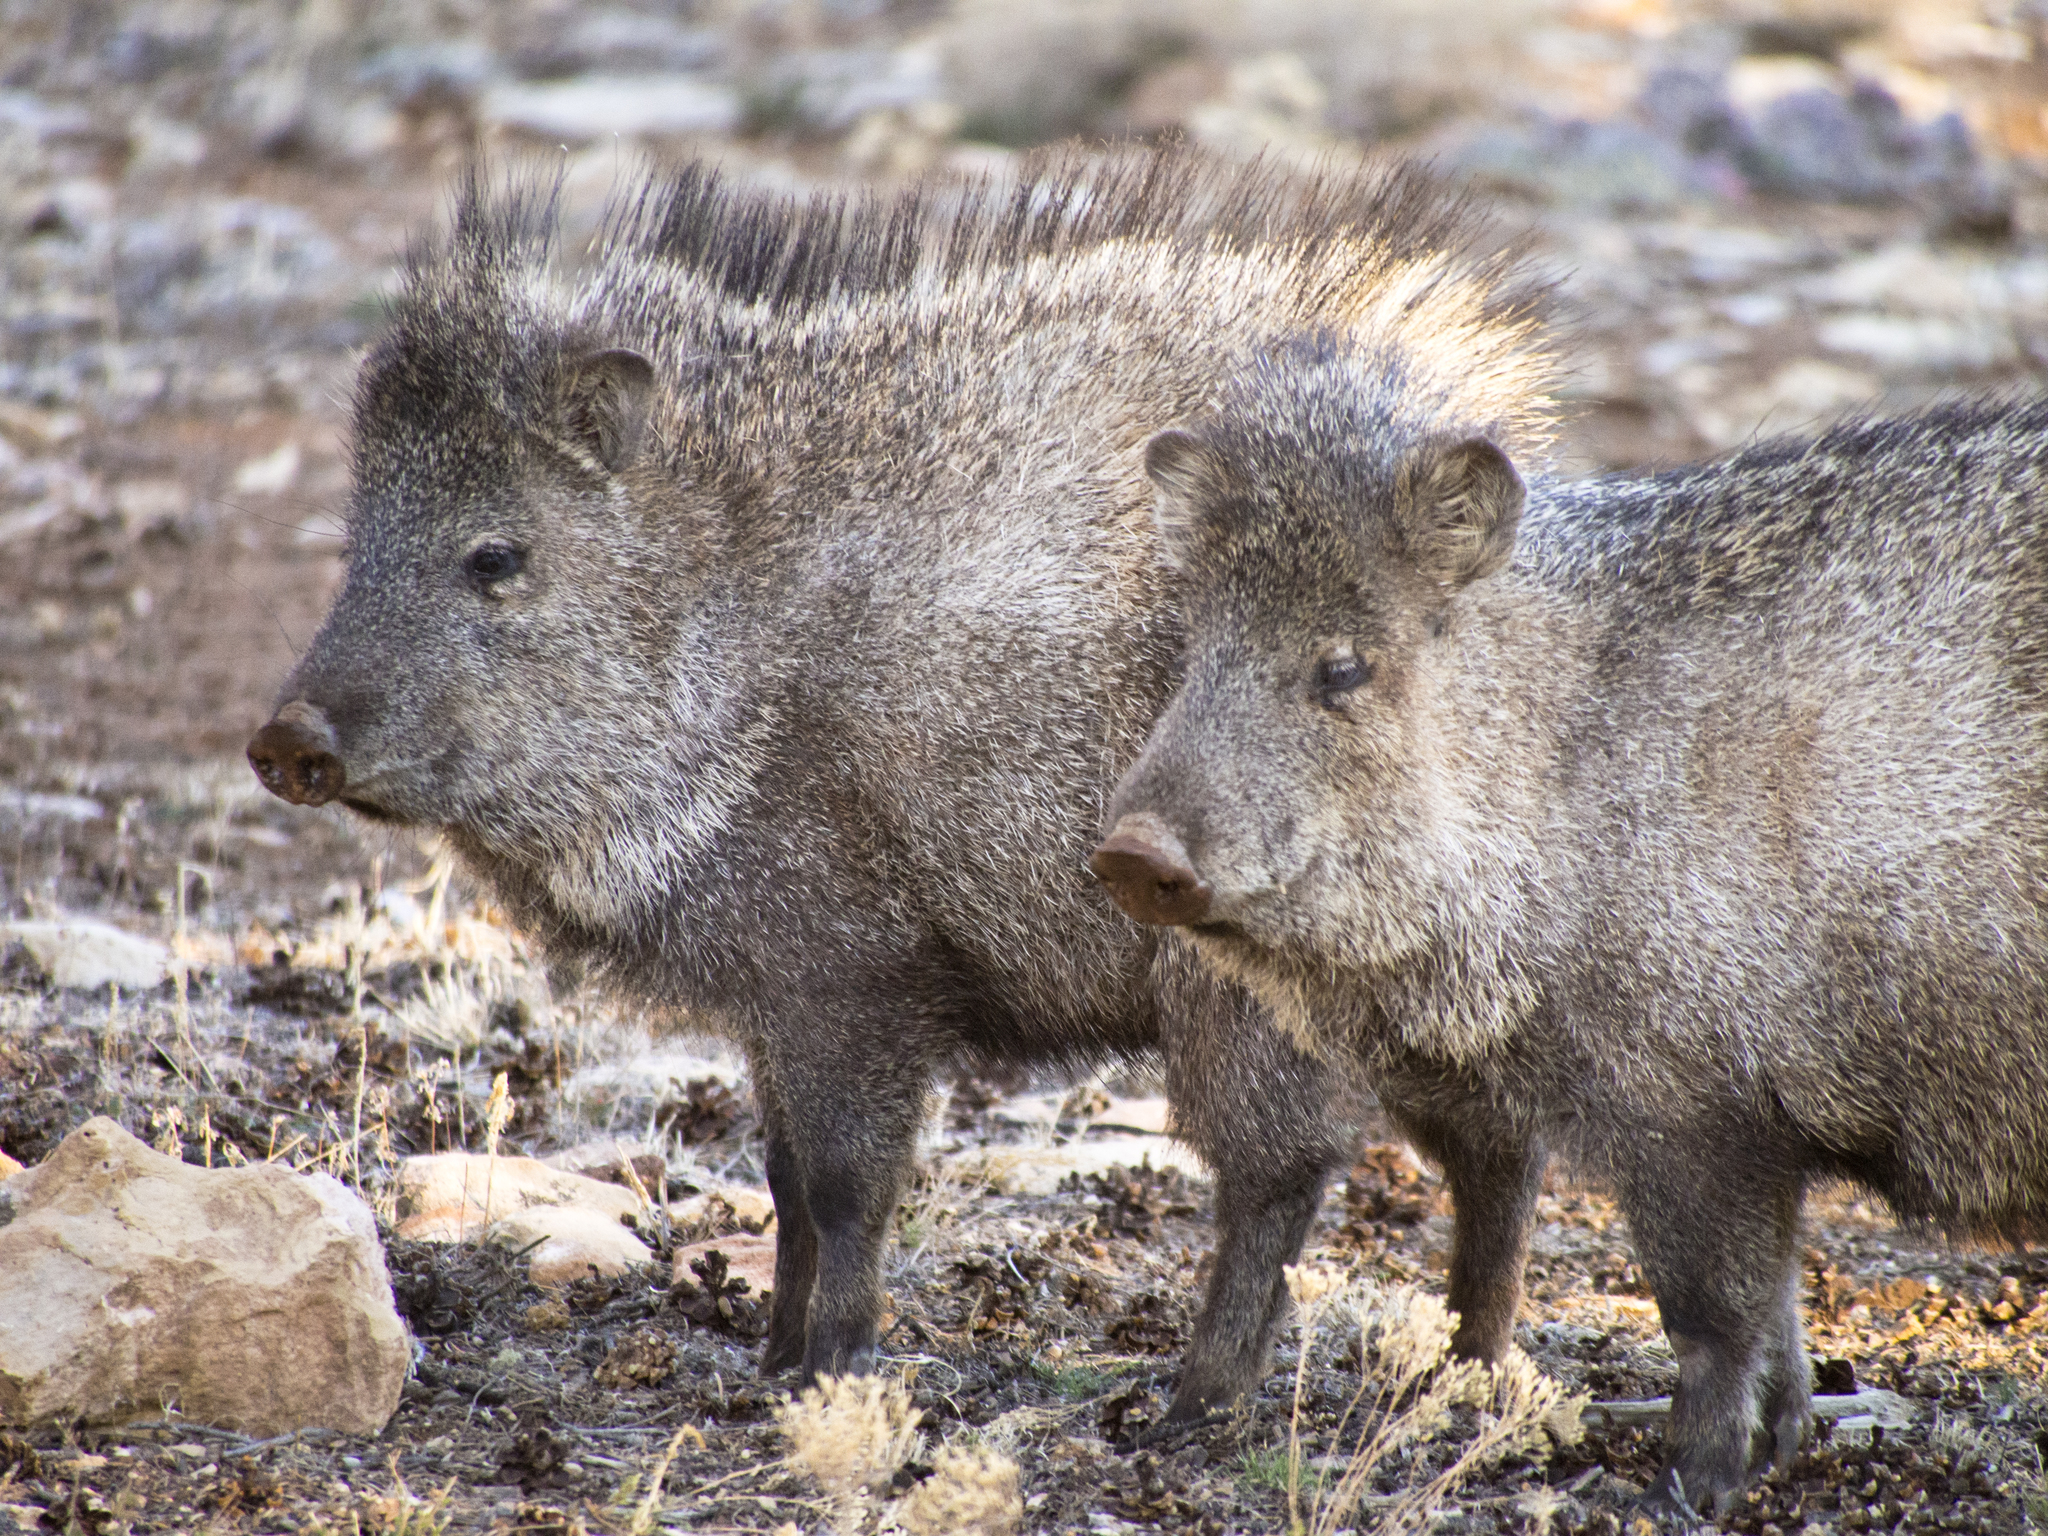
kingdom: Animalia
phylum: Chordata
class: Mammalia
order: Artiodactyla
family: Tayassuidae
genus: Pecari
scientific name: Pecari tajacu
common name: Collared peccary
